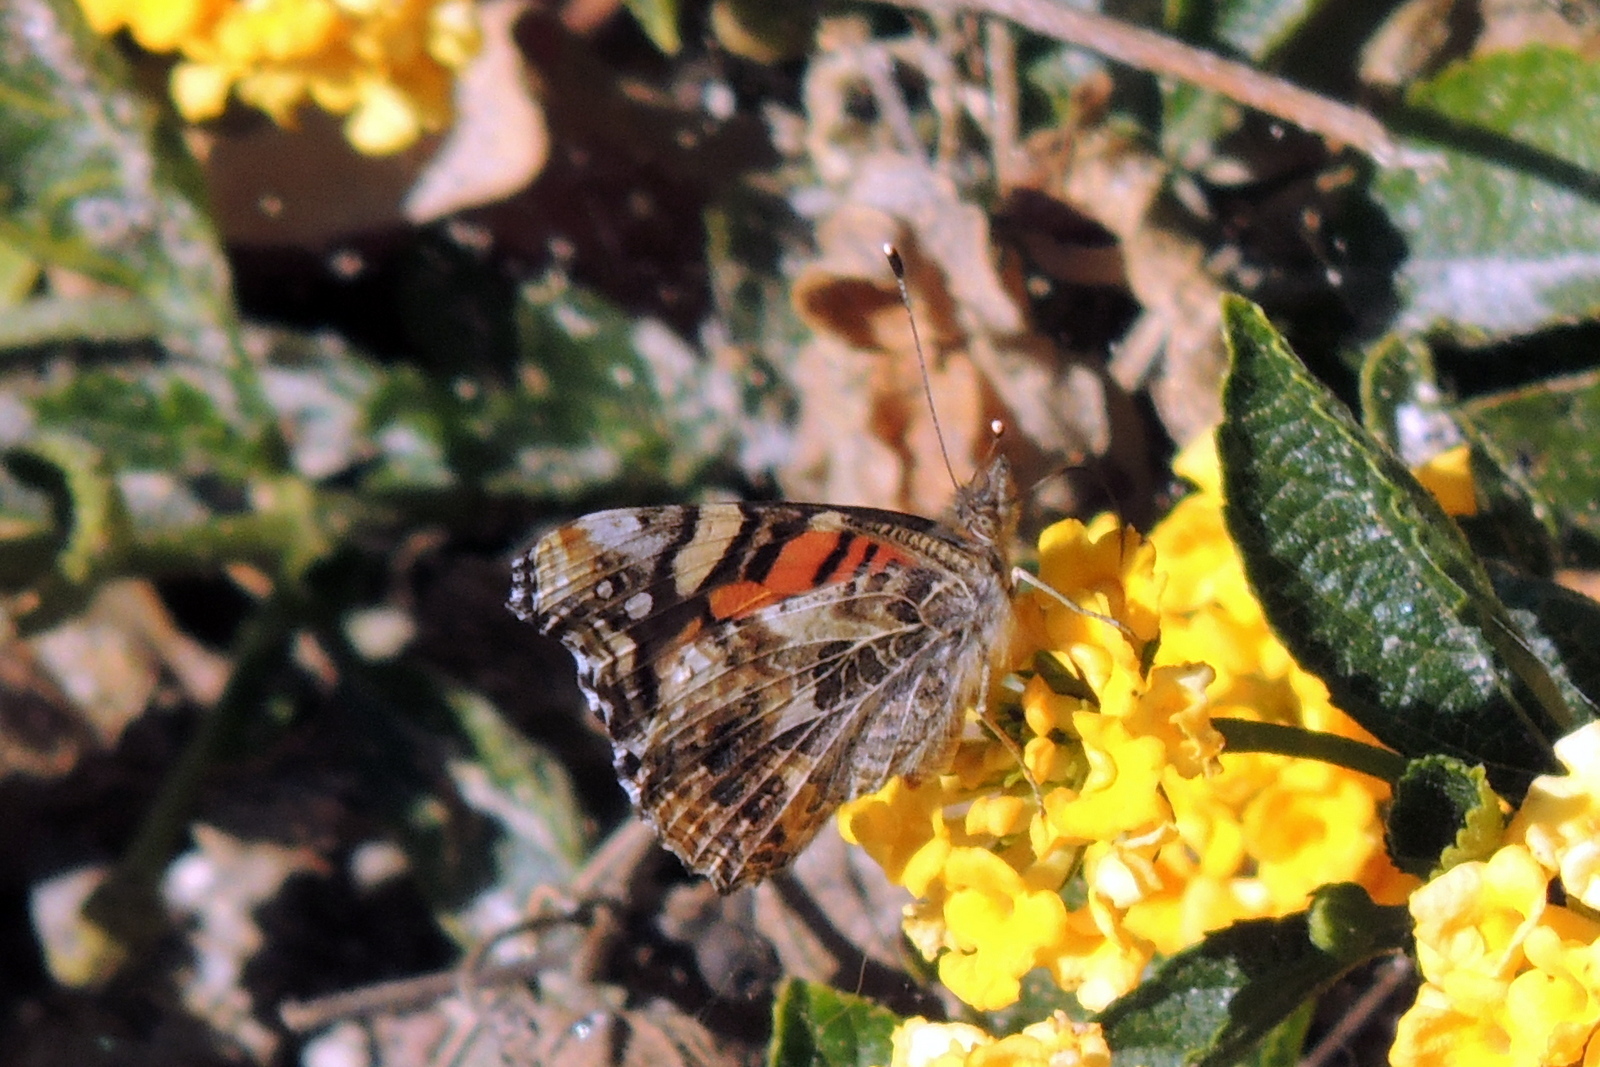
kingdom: Animalia
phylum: Arthropoda
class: Insecta
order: Lepidoptera
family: Nymphalidae
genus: Vanessa
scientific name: Vanessa annabella
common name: West coast lady
